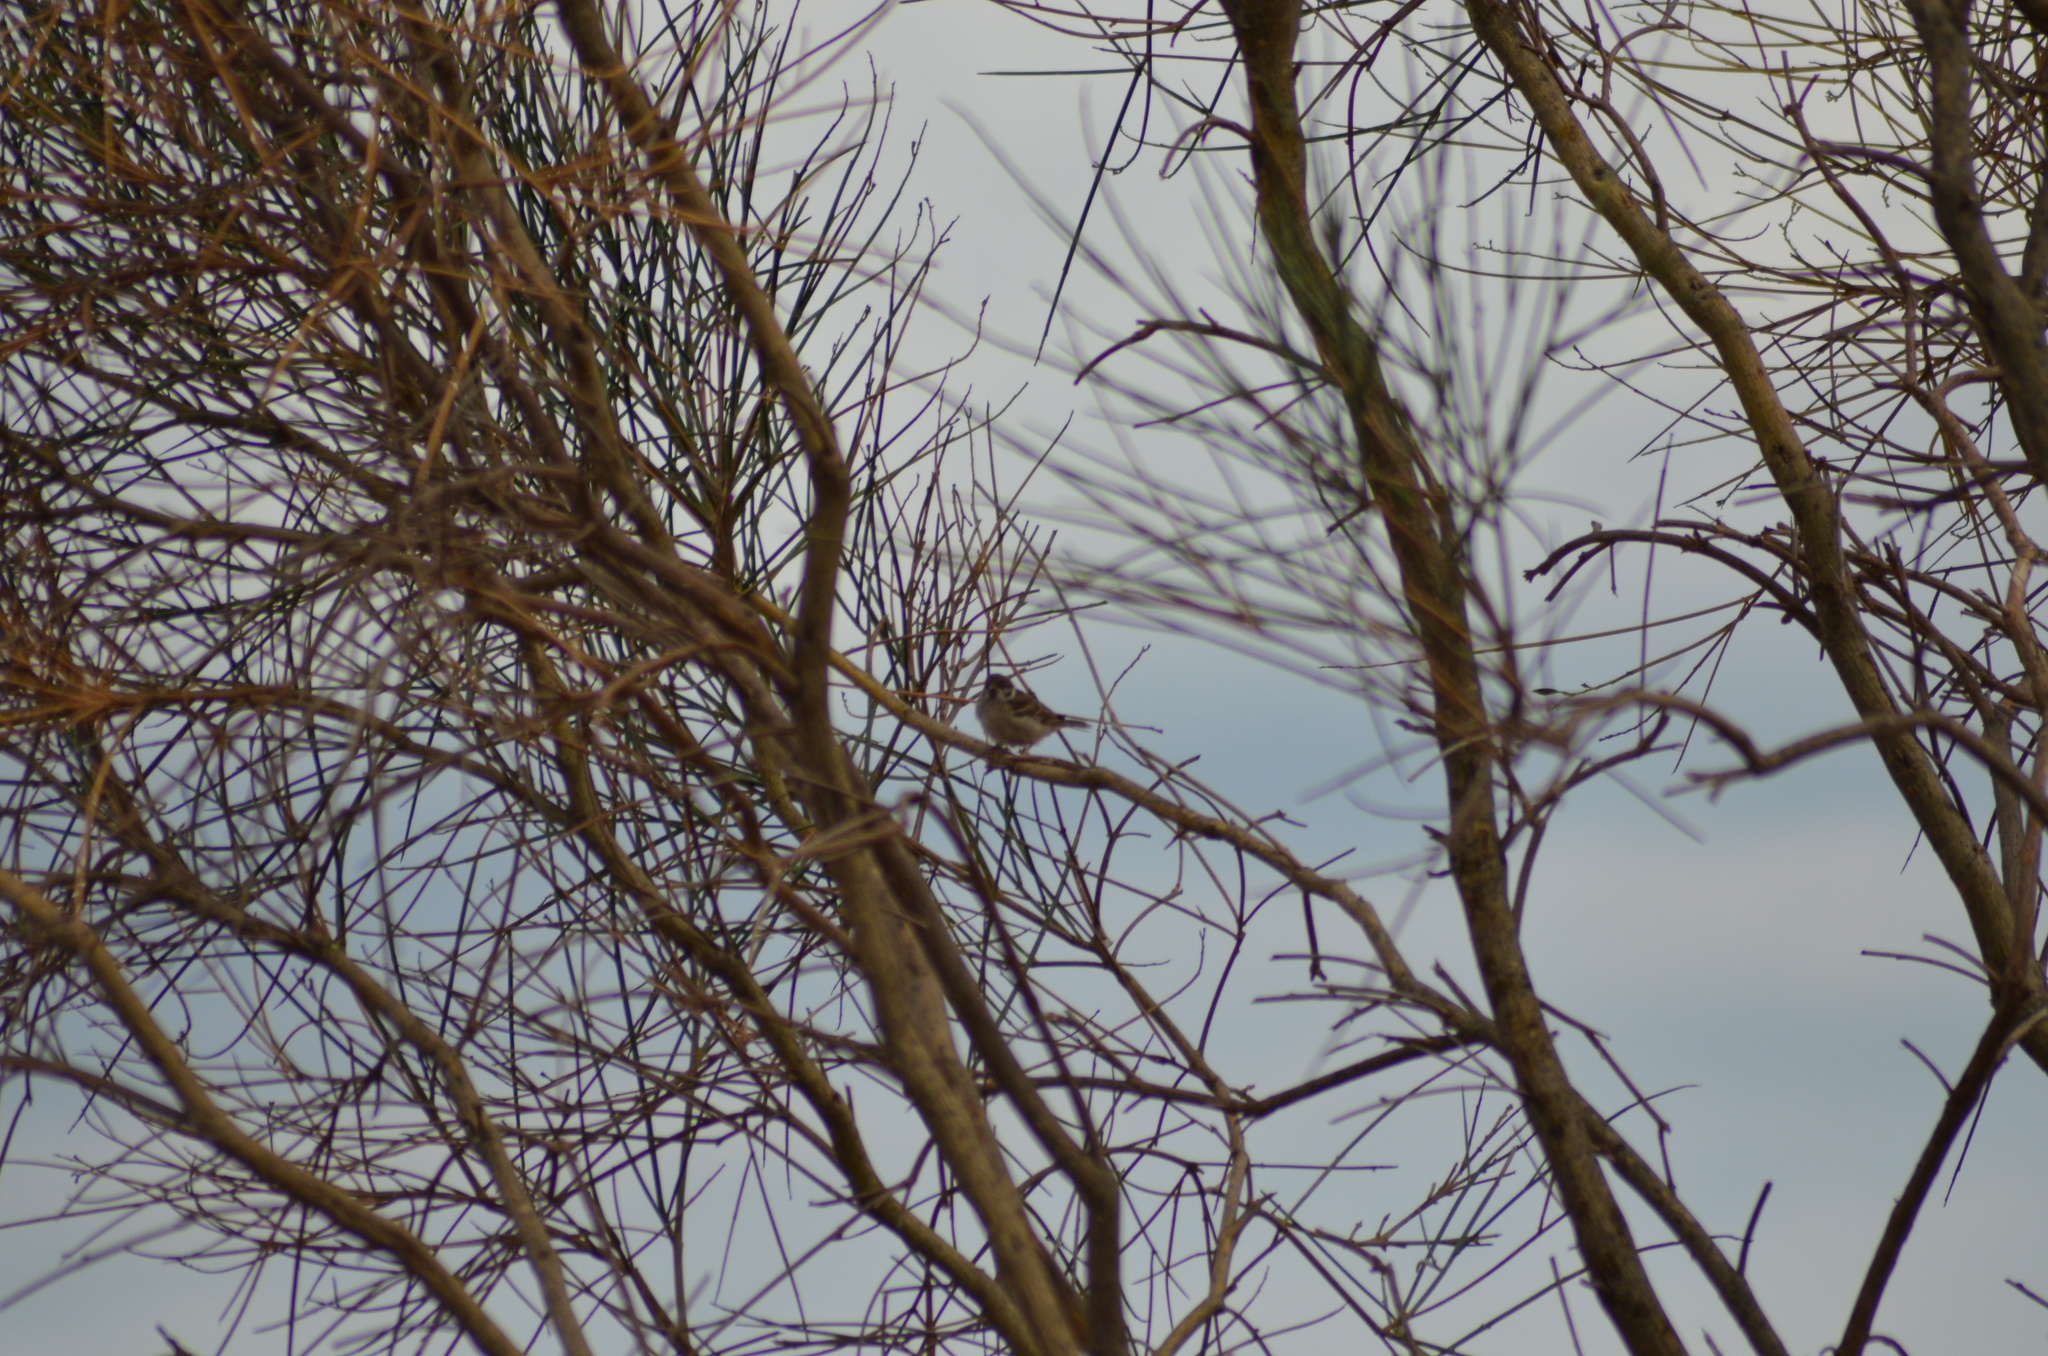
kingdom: Animalia
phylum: Chordata
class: Aves
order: Passeriformes
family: Passeridae
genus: Passer
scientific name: Passer montanus
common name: Eurasian tree sparrow
